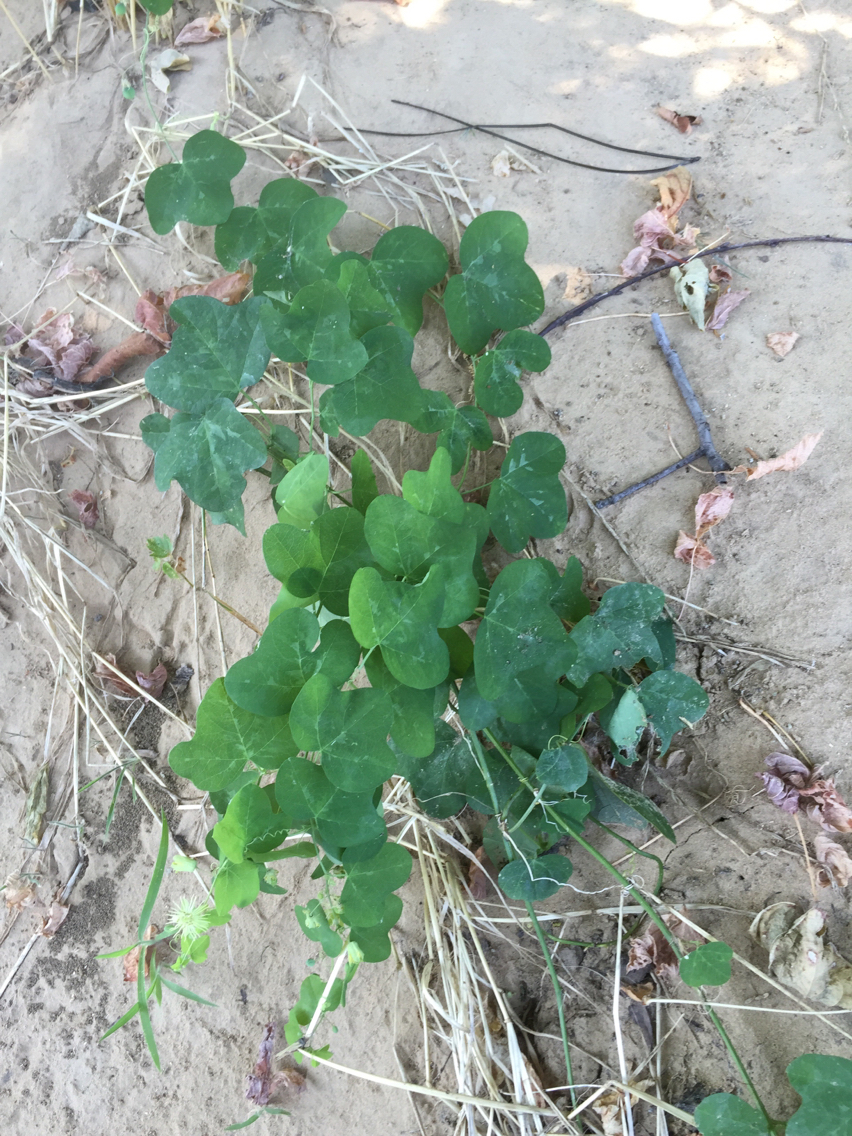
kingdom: Plantae
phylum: Tracheophyta
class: Magnoliopsida
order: Malpighiales
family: Passifloraceae
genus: Passiflora
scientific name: Passiflora lutea
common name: Yellow passionflower
